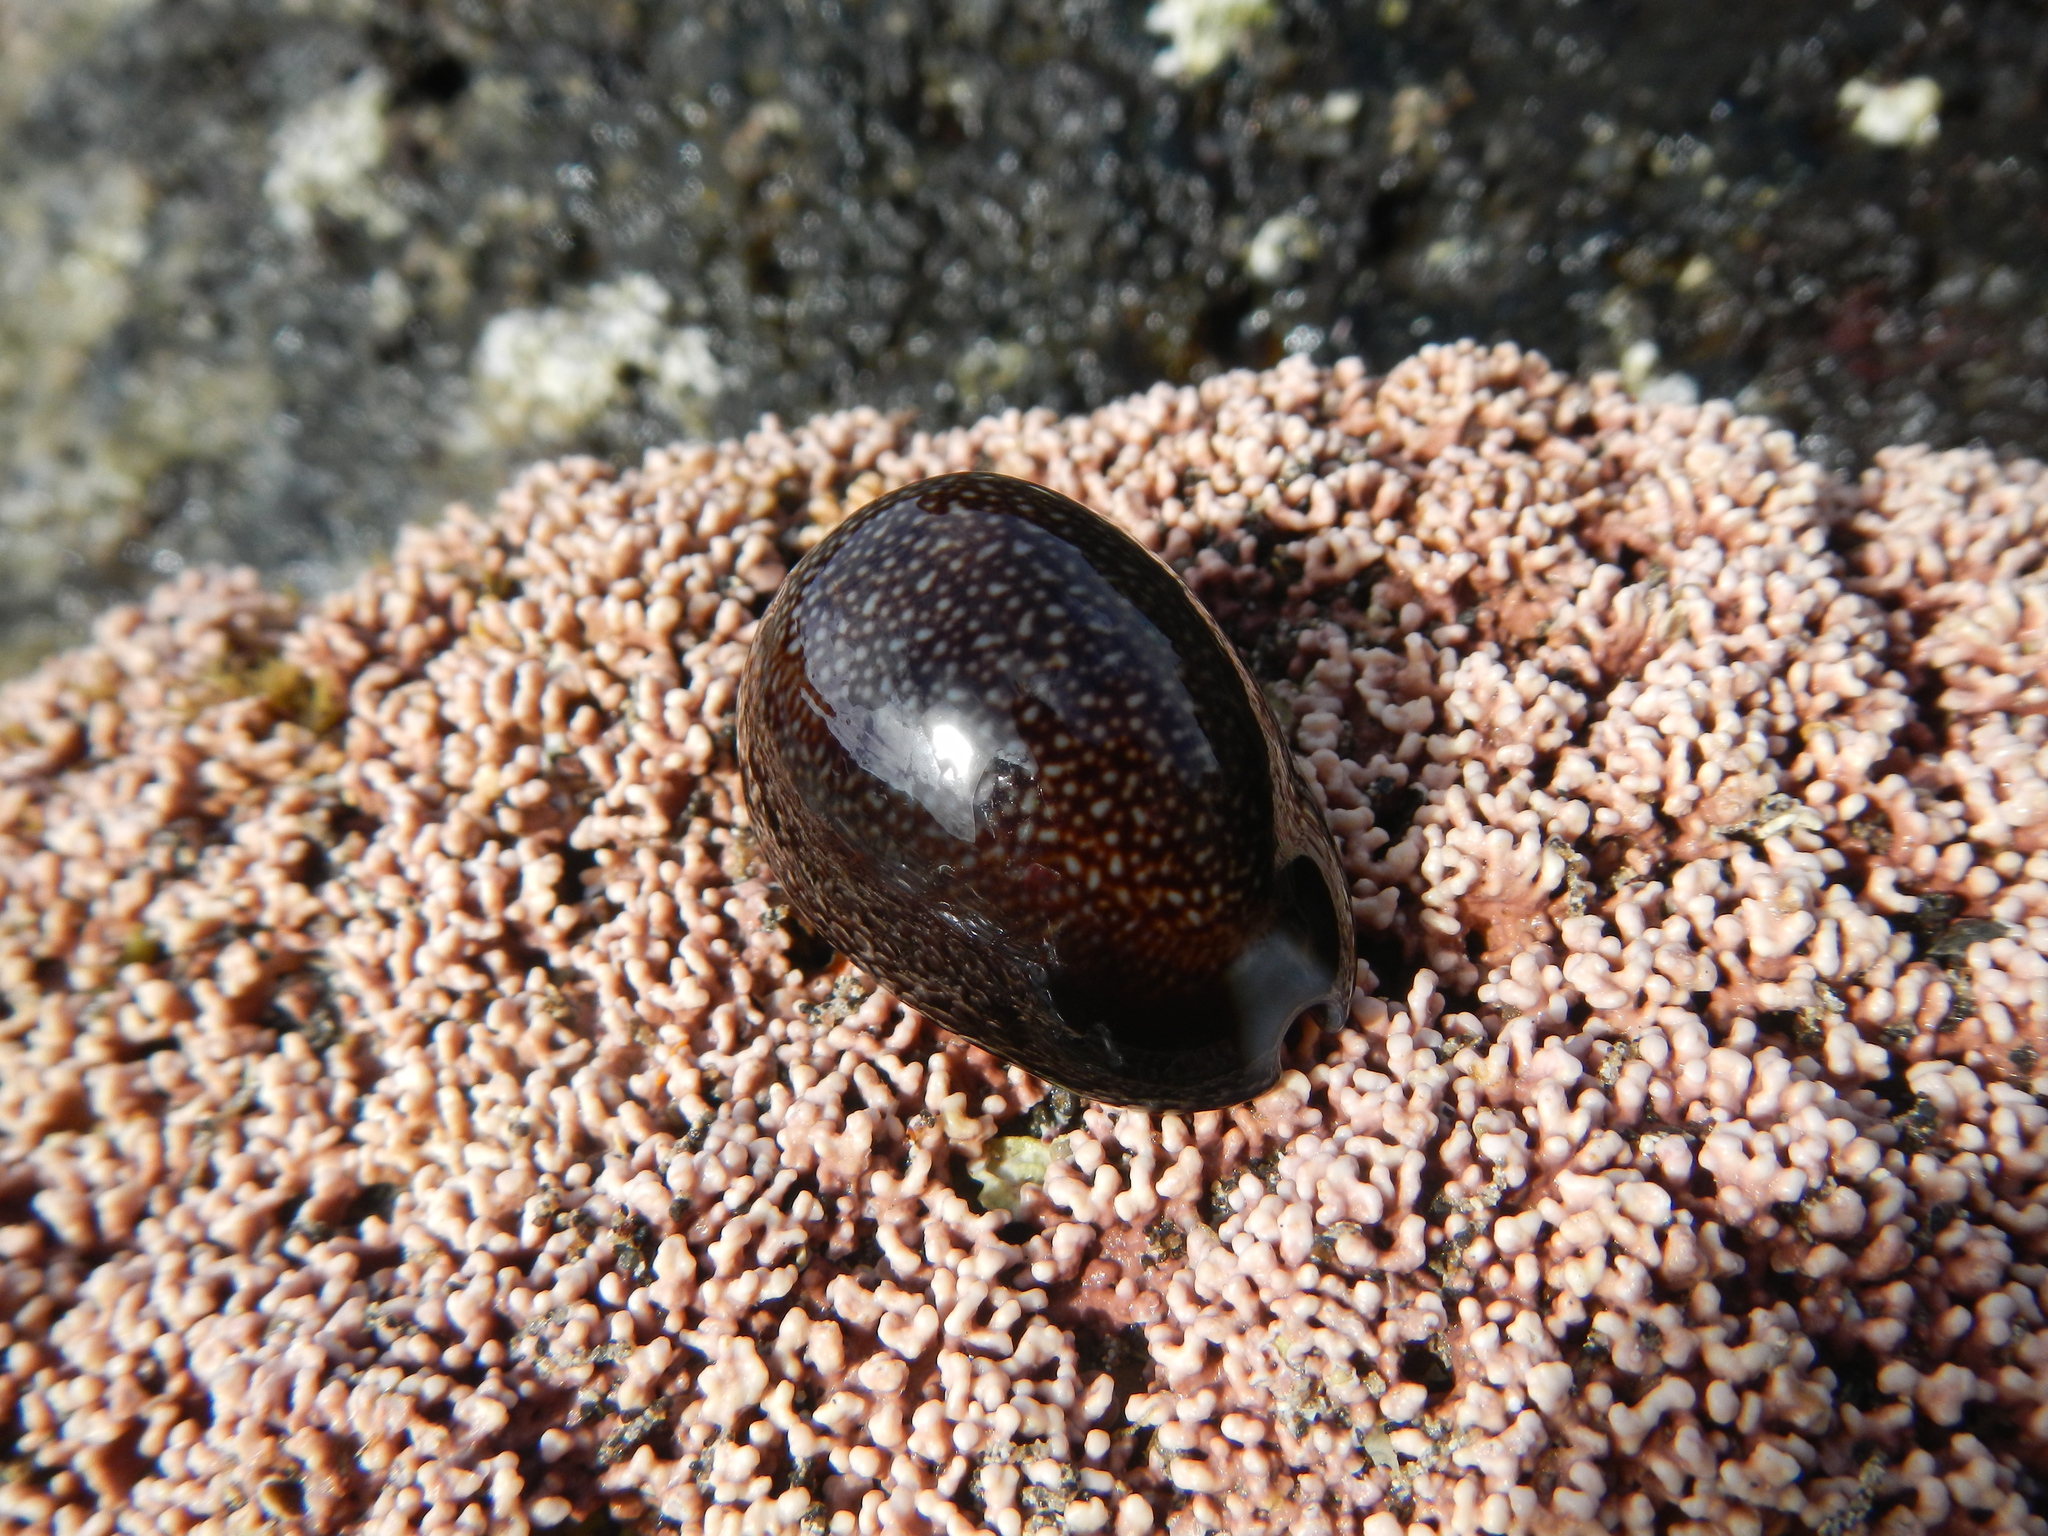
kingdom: Animalia
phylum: Mollusca
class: Gastropoda
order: Littorinimorpha
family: Cypraeidae
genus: Monetaria
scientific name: Monetaria caputdraconis
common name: Dragon's head cowry
